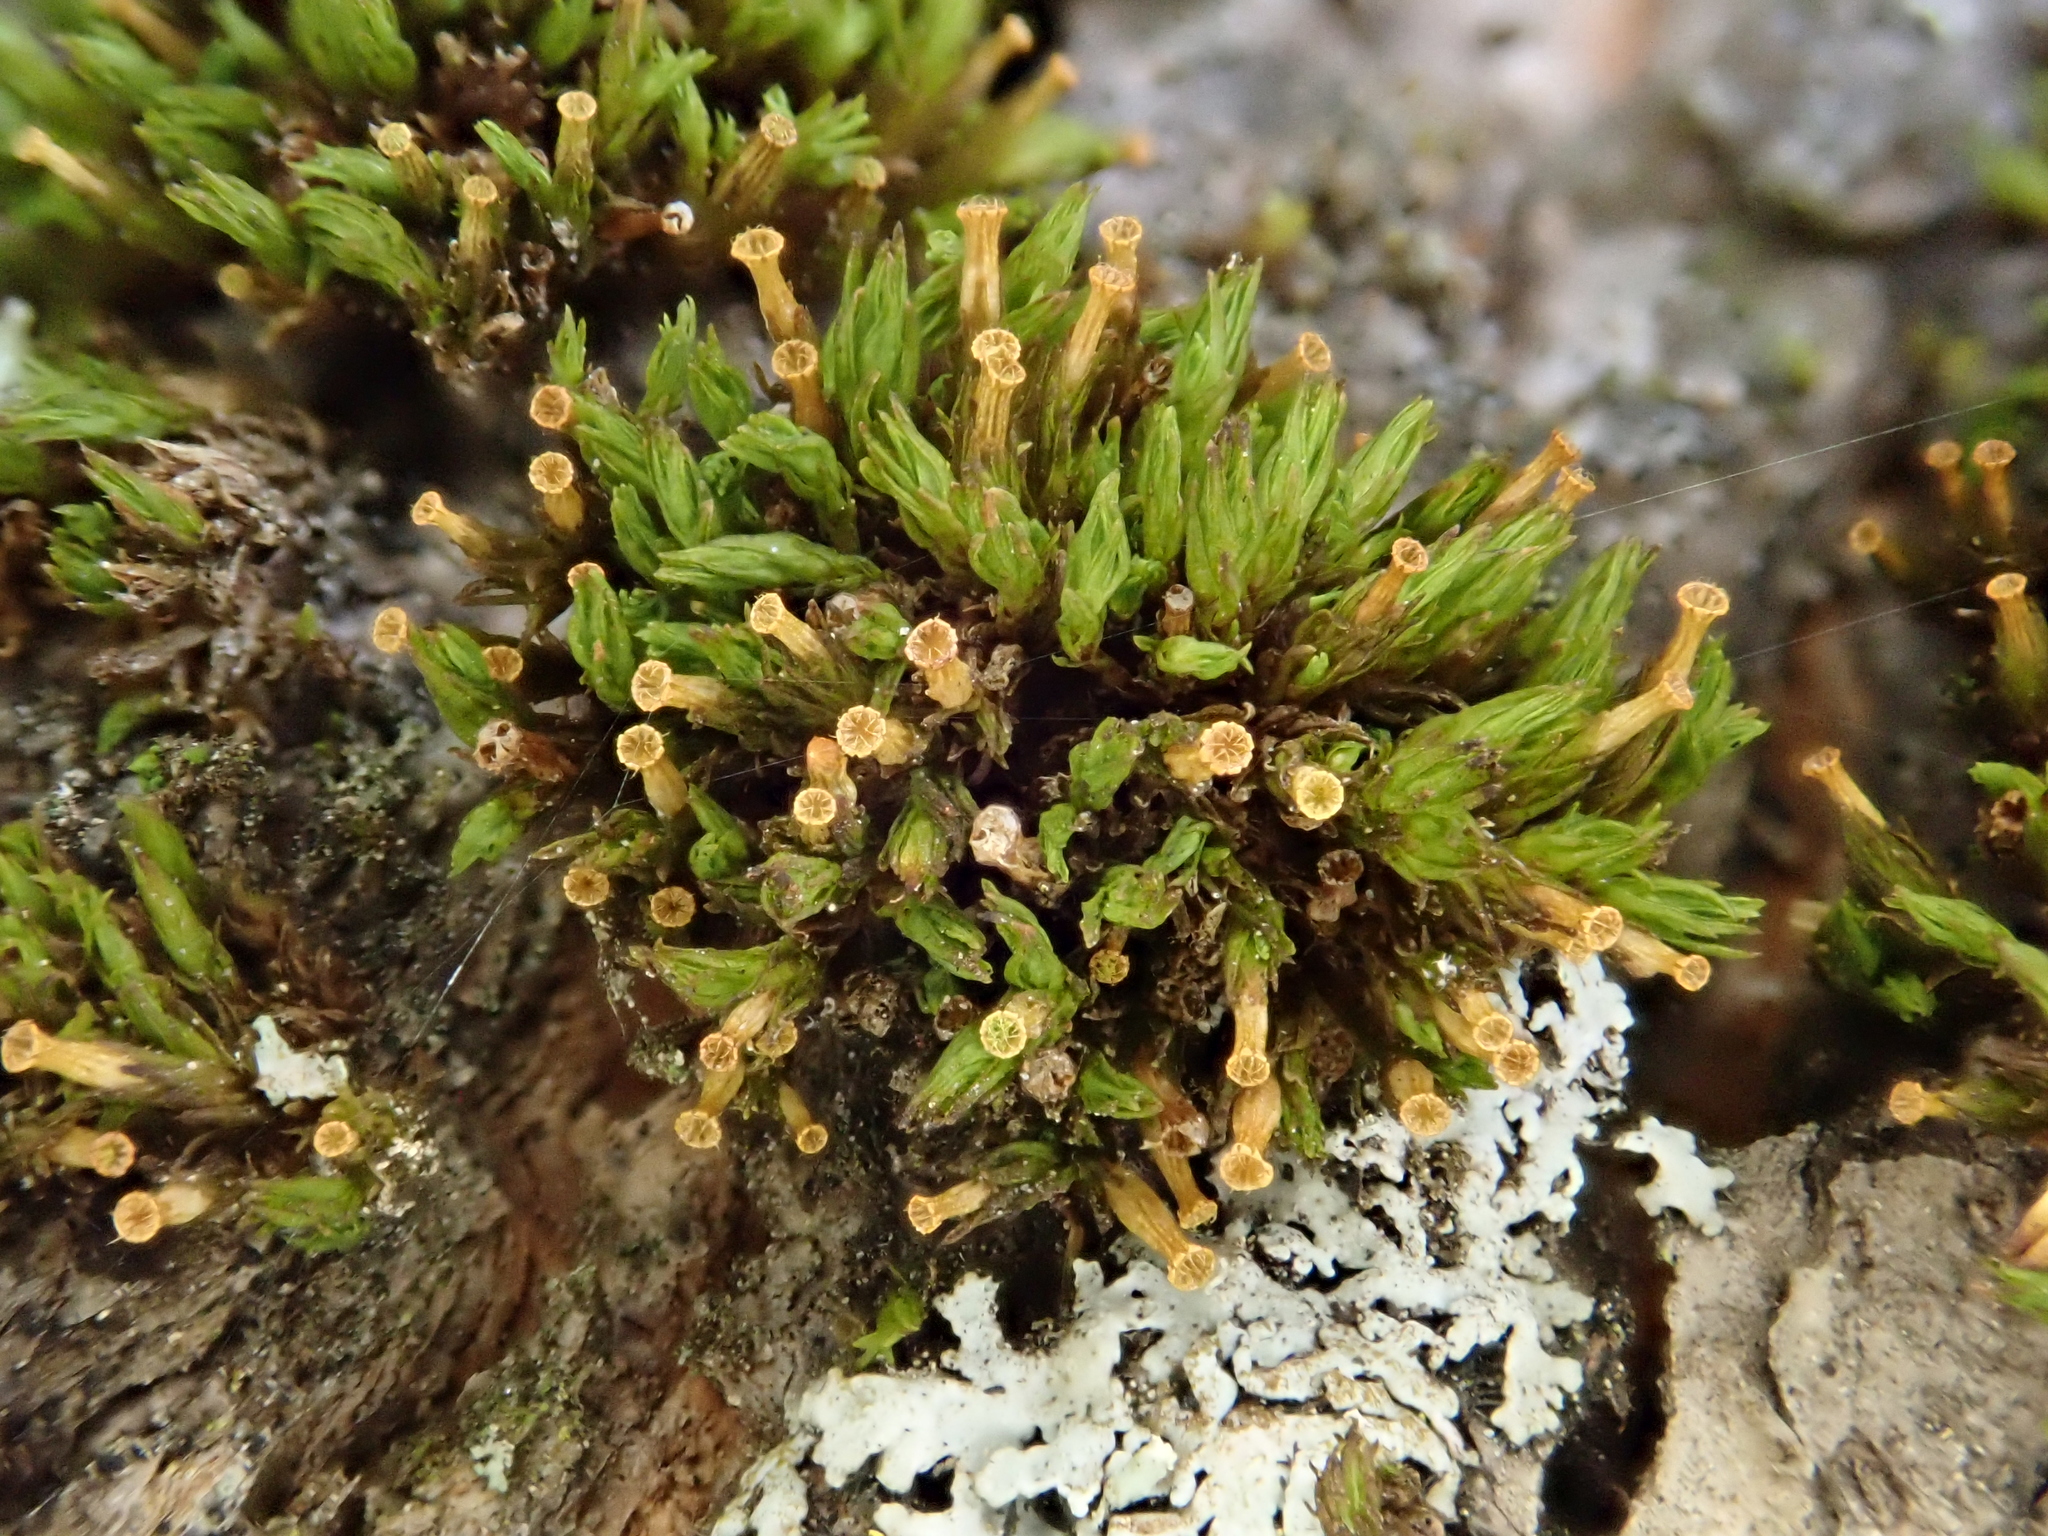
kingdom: Plantae
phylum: Bryophyta
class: Bryopsida
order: Orthotrichales
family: Orthotrichaceae
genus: Orthotrichum
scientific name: Orthotrichum pallens
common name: Pale bristle moss
